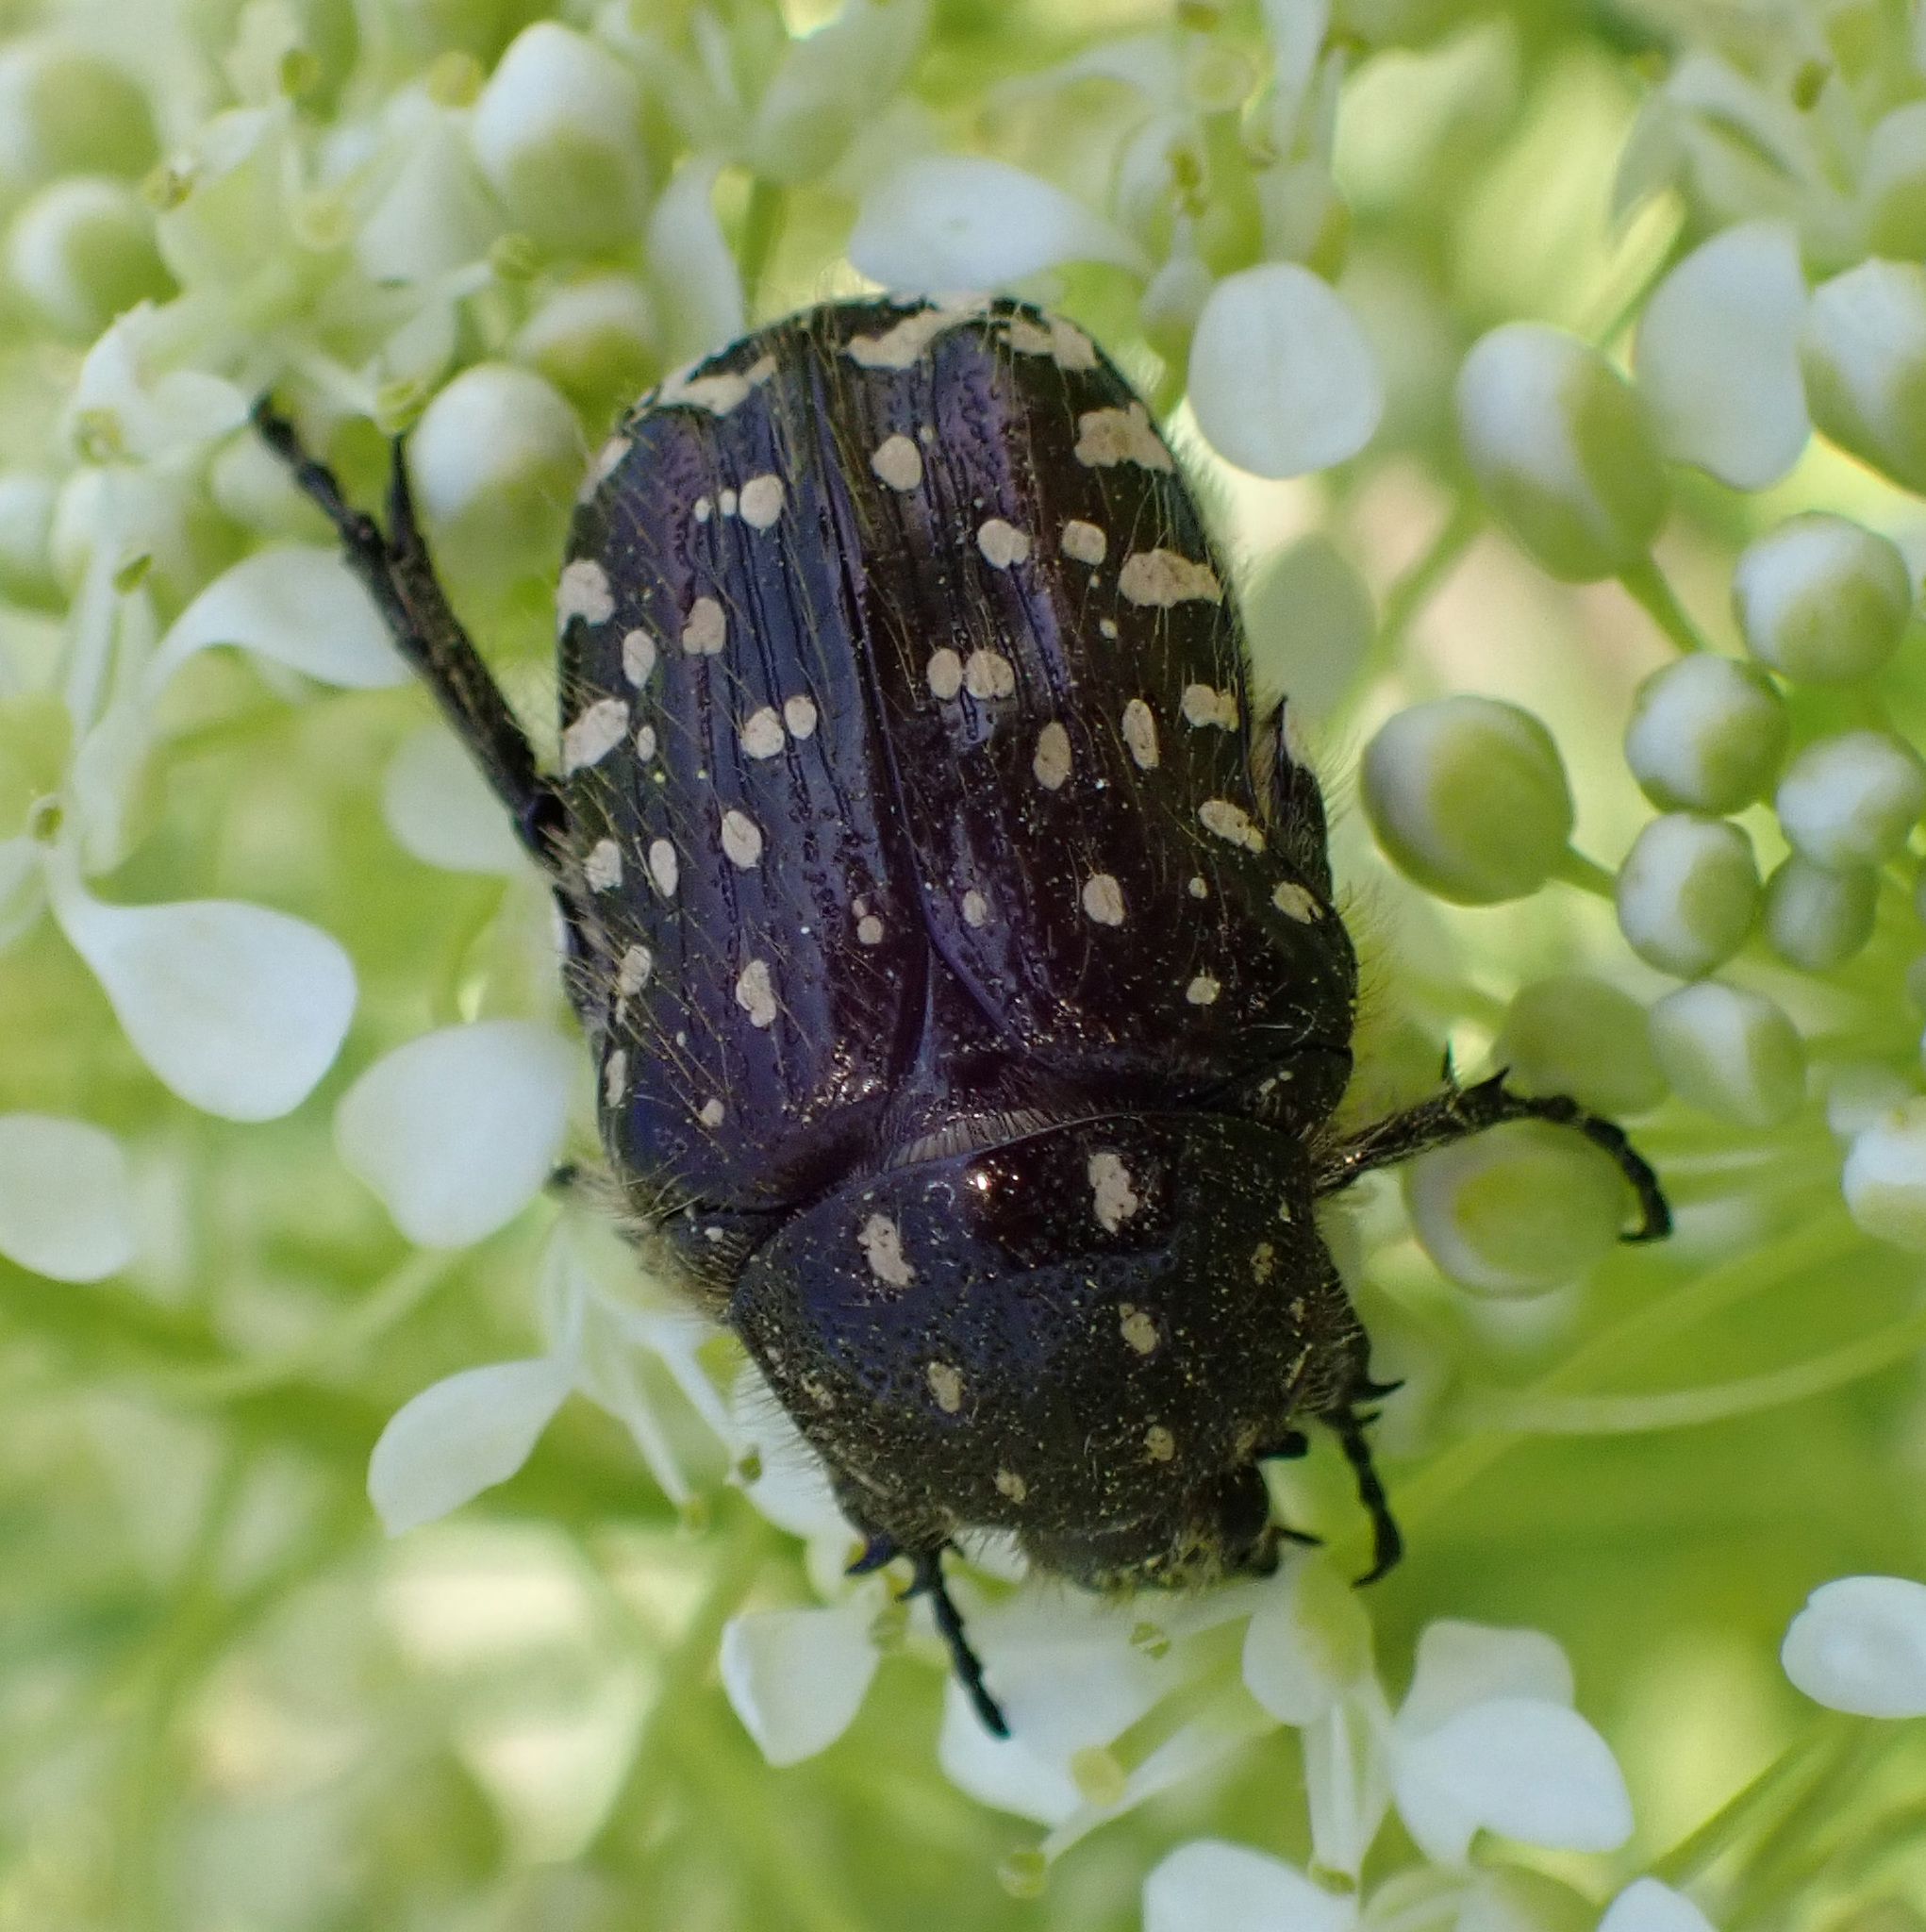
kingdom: Animalia
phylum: Arthropoda
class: Insecta
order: Coleoptera
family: Scarabaeidae
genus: Oxythyrea
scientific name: Oxythyrea funesta
